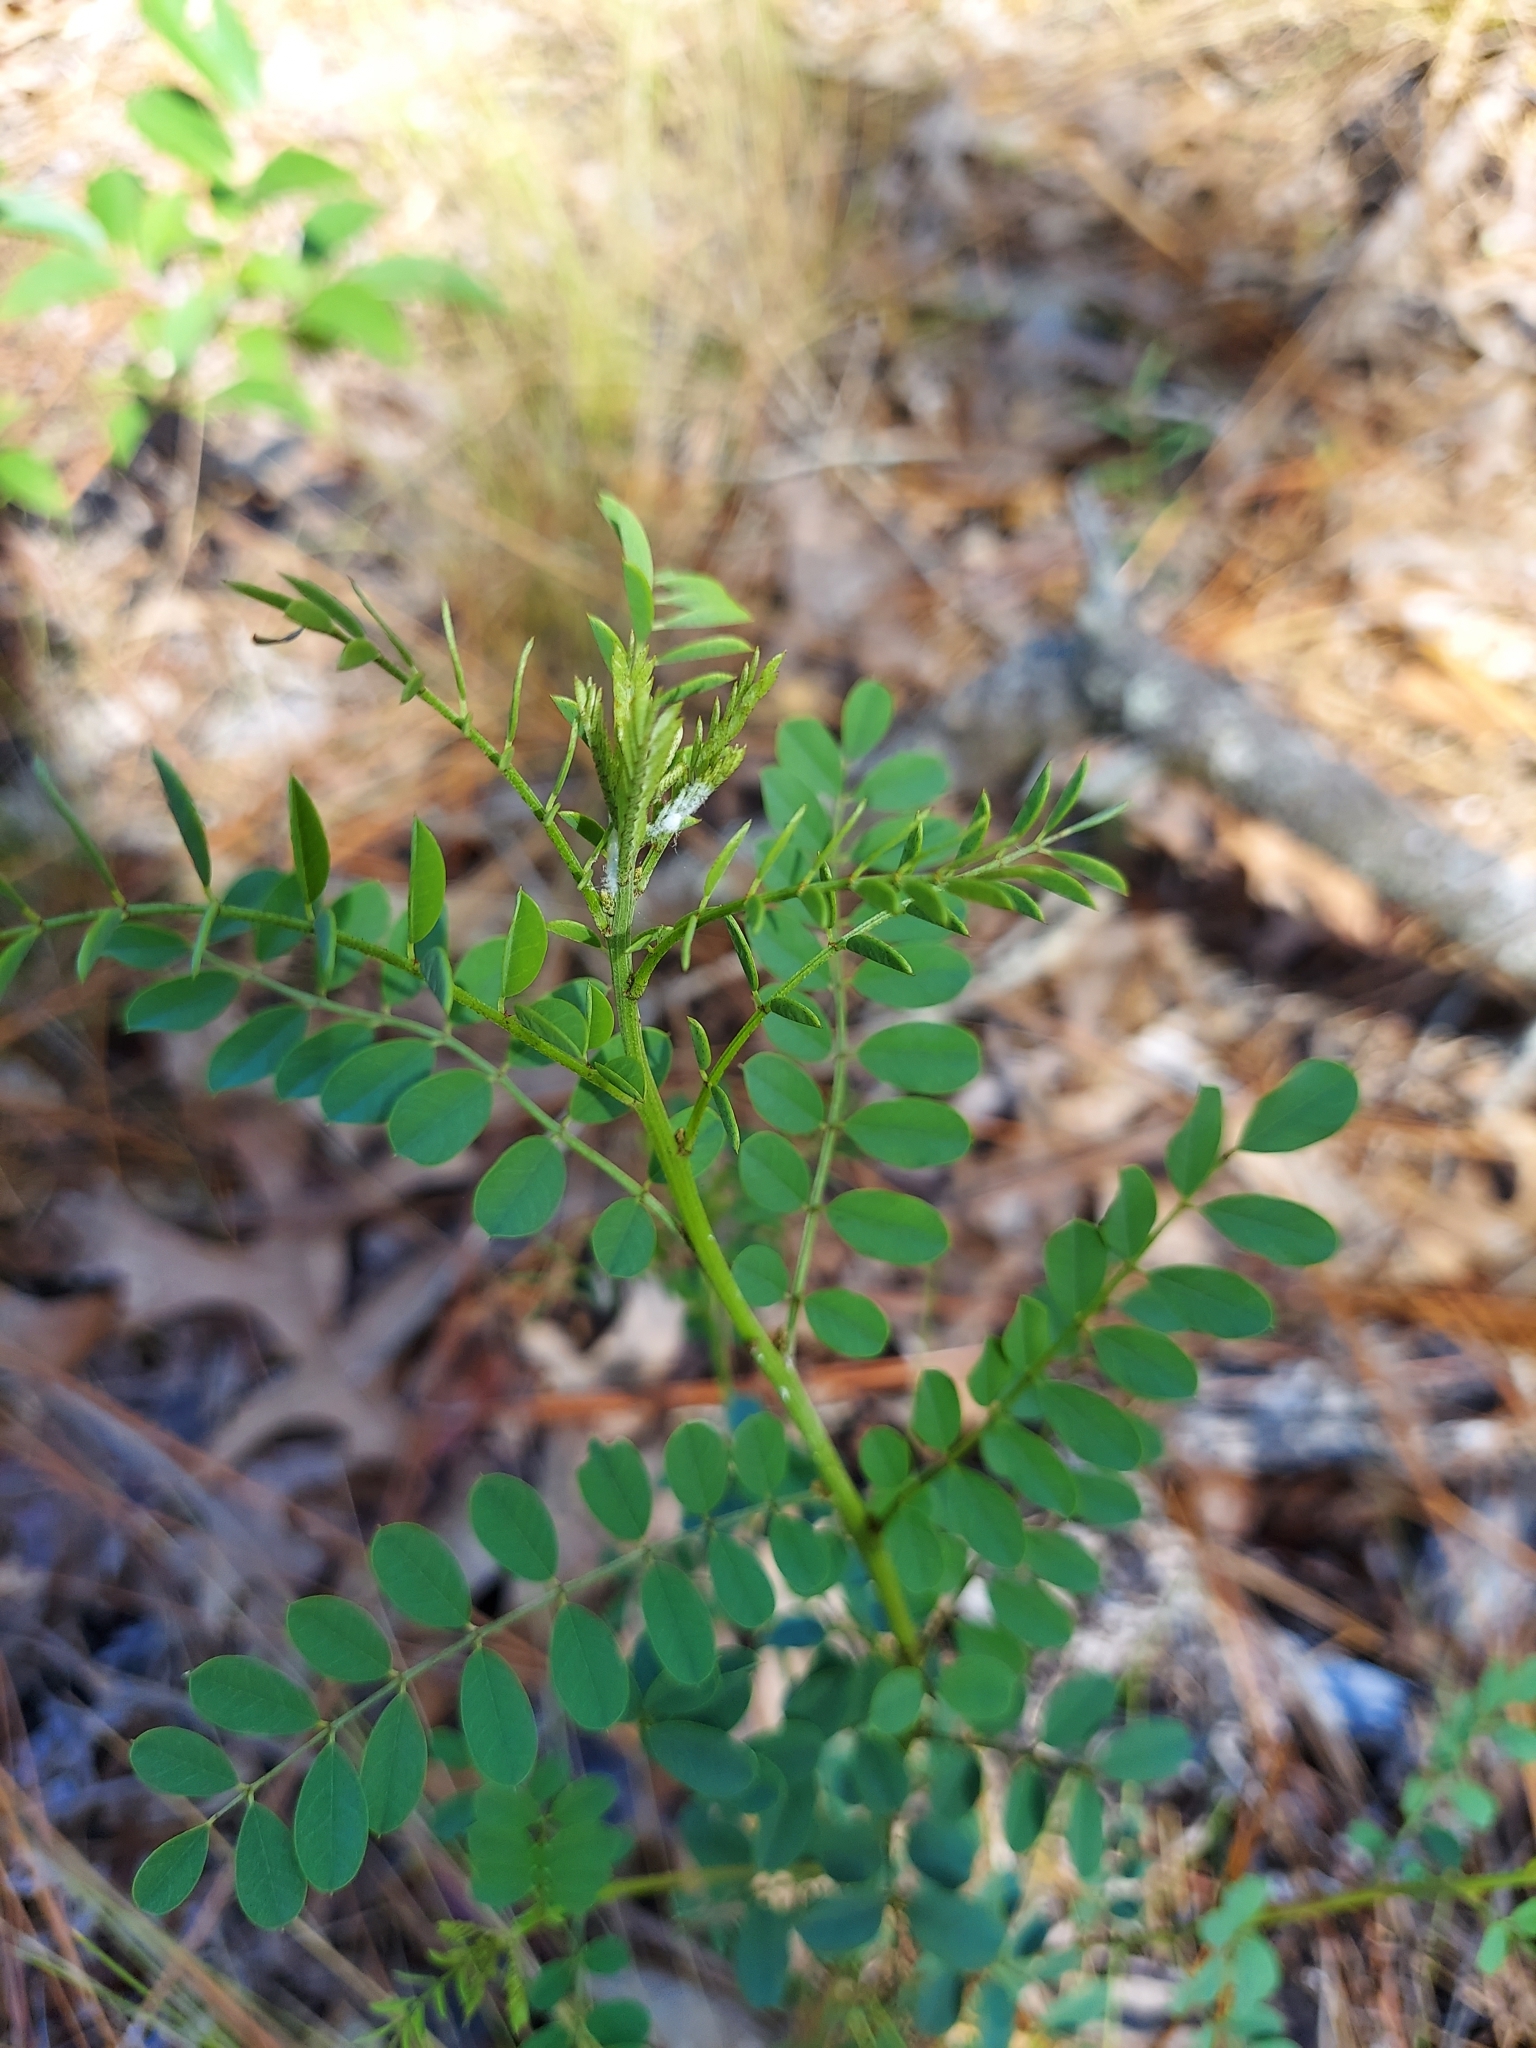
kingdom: Plantae
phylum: Tracheophyta
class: Magnoliopsida
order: Fabales
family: Fabaceae
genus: Indigofera
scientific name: Indigofera caroliniana
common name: Wild indigo
